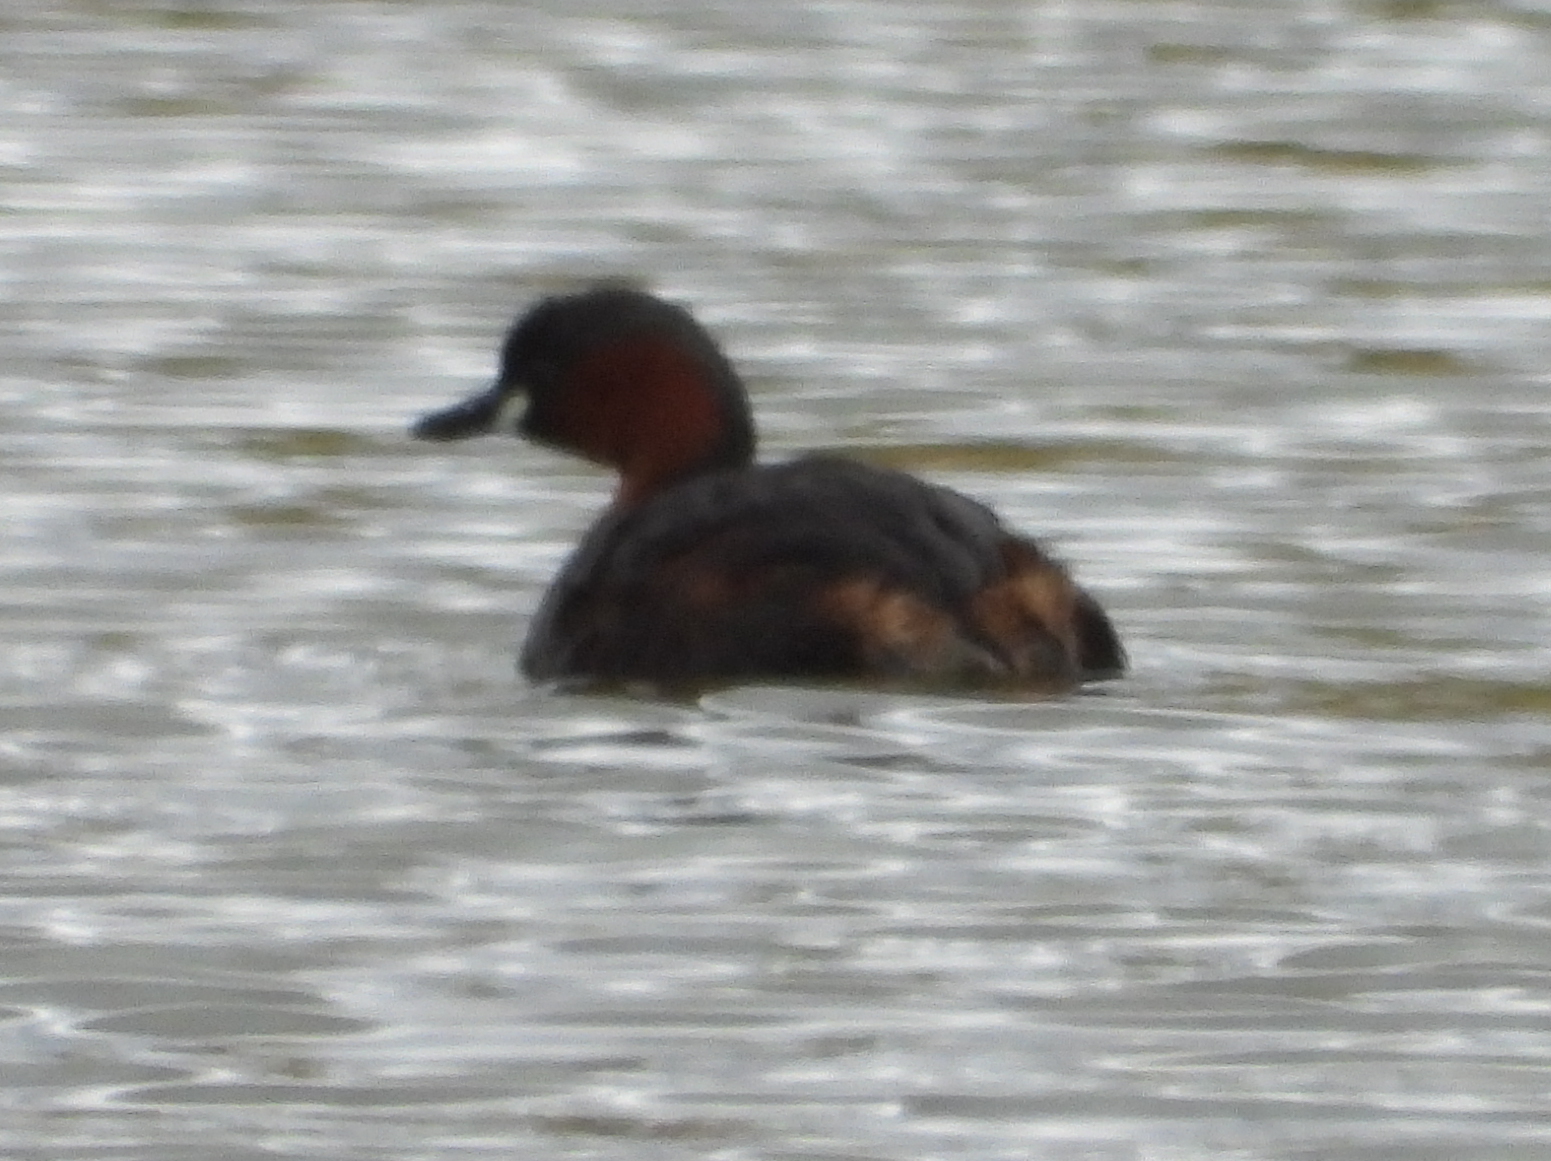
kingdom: Animalia
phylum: Chordata
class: Aves
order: Podicipediformes
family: Podicipedidae
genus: Tachybaptus
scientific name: Tachybaptus ruficollis
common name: Little grebe
